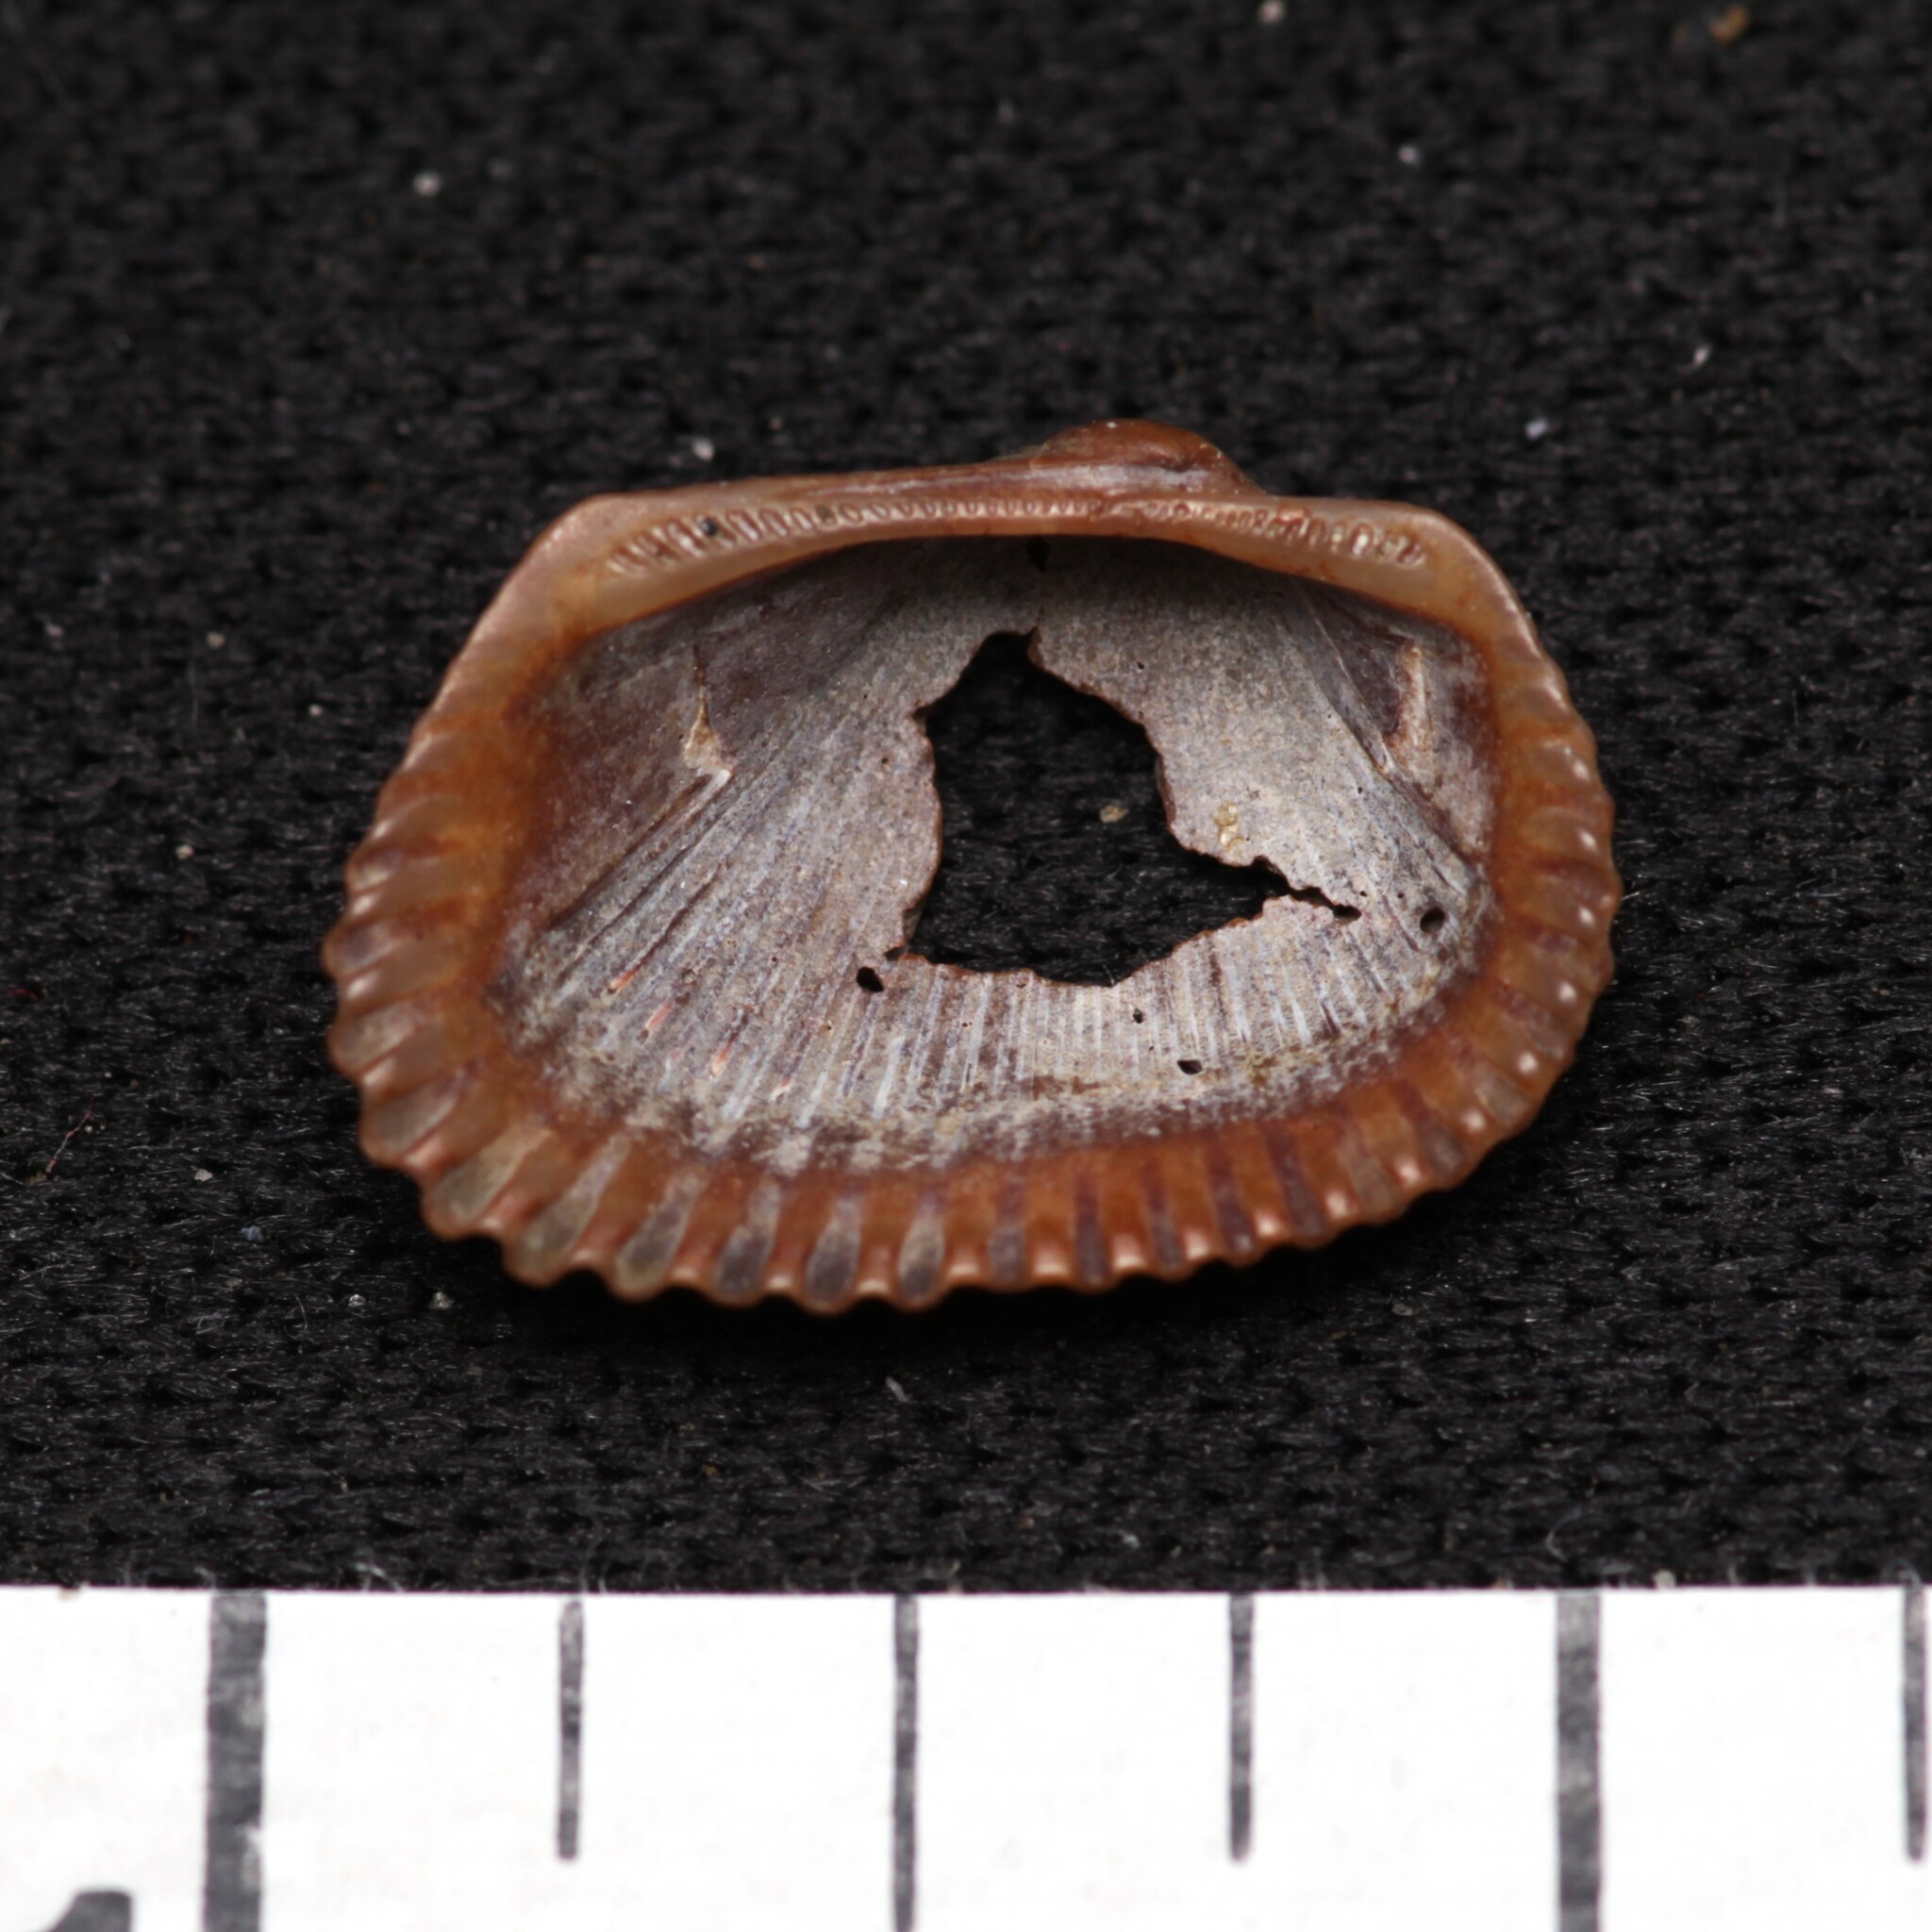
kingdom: Animalia
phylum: Mollusca
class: Bivalvia
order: Arcida
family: Arcidae
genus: Anadara
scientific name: Anadara transversa
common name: Transverse ark
